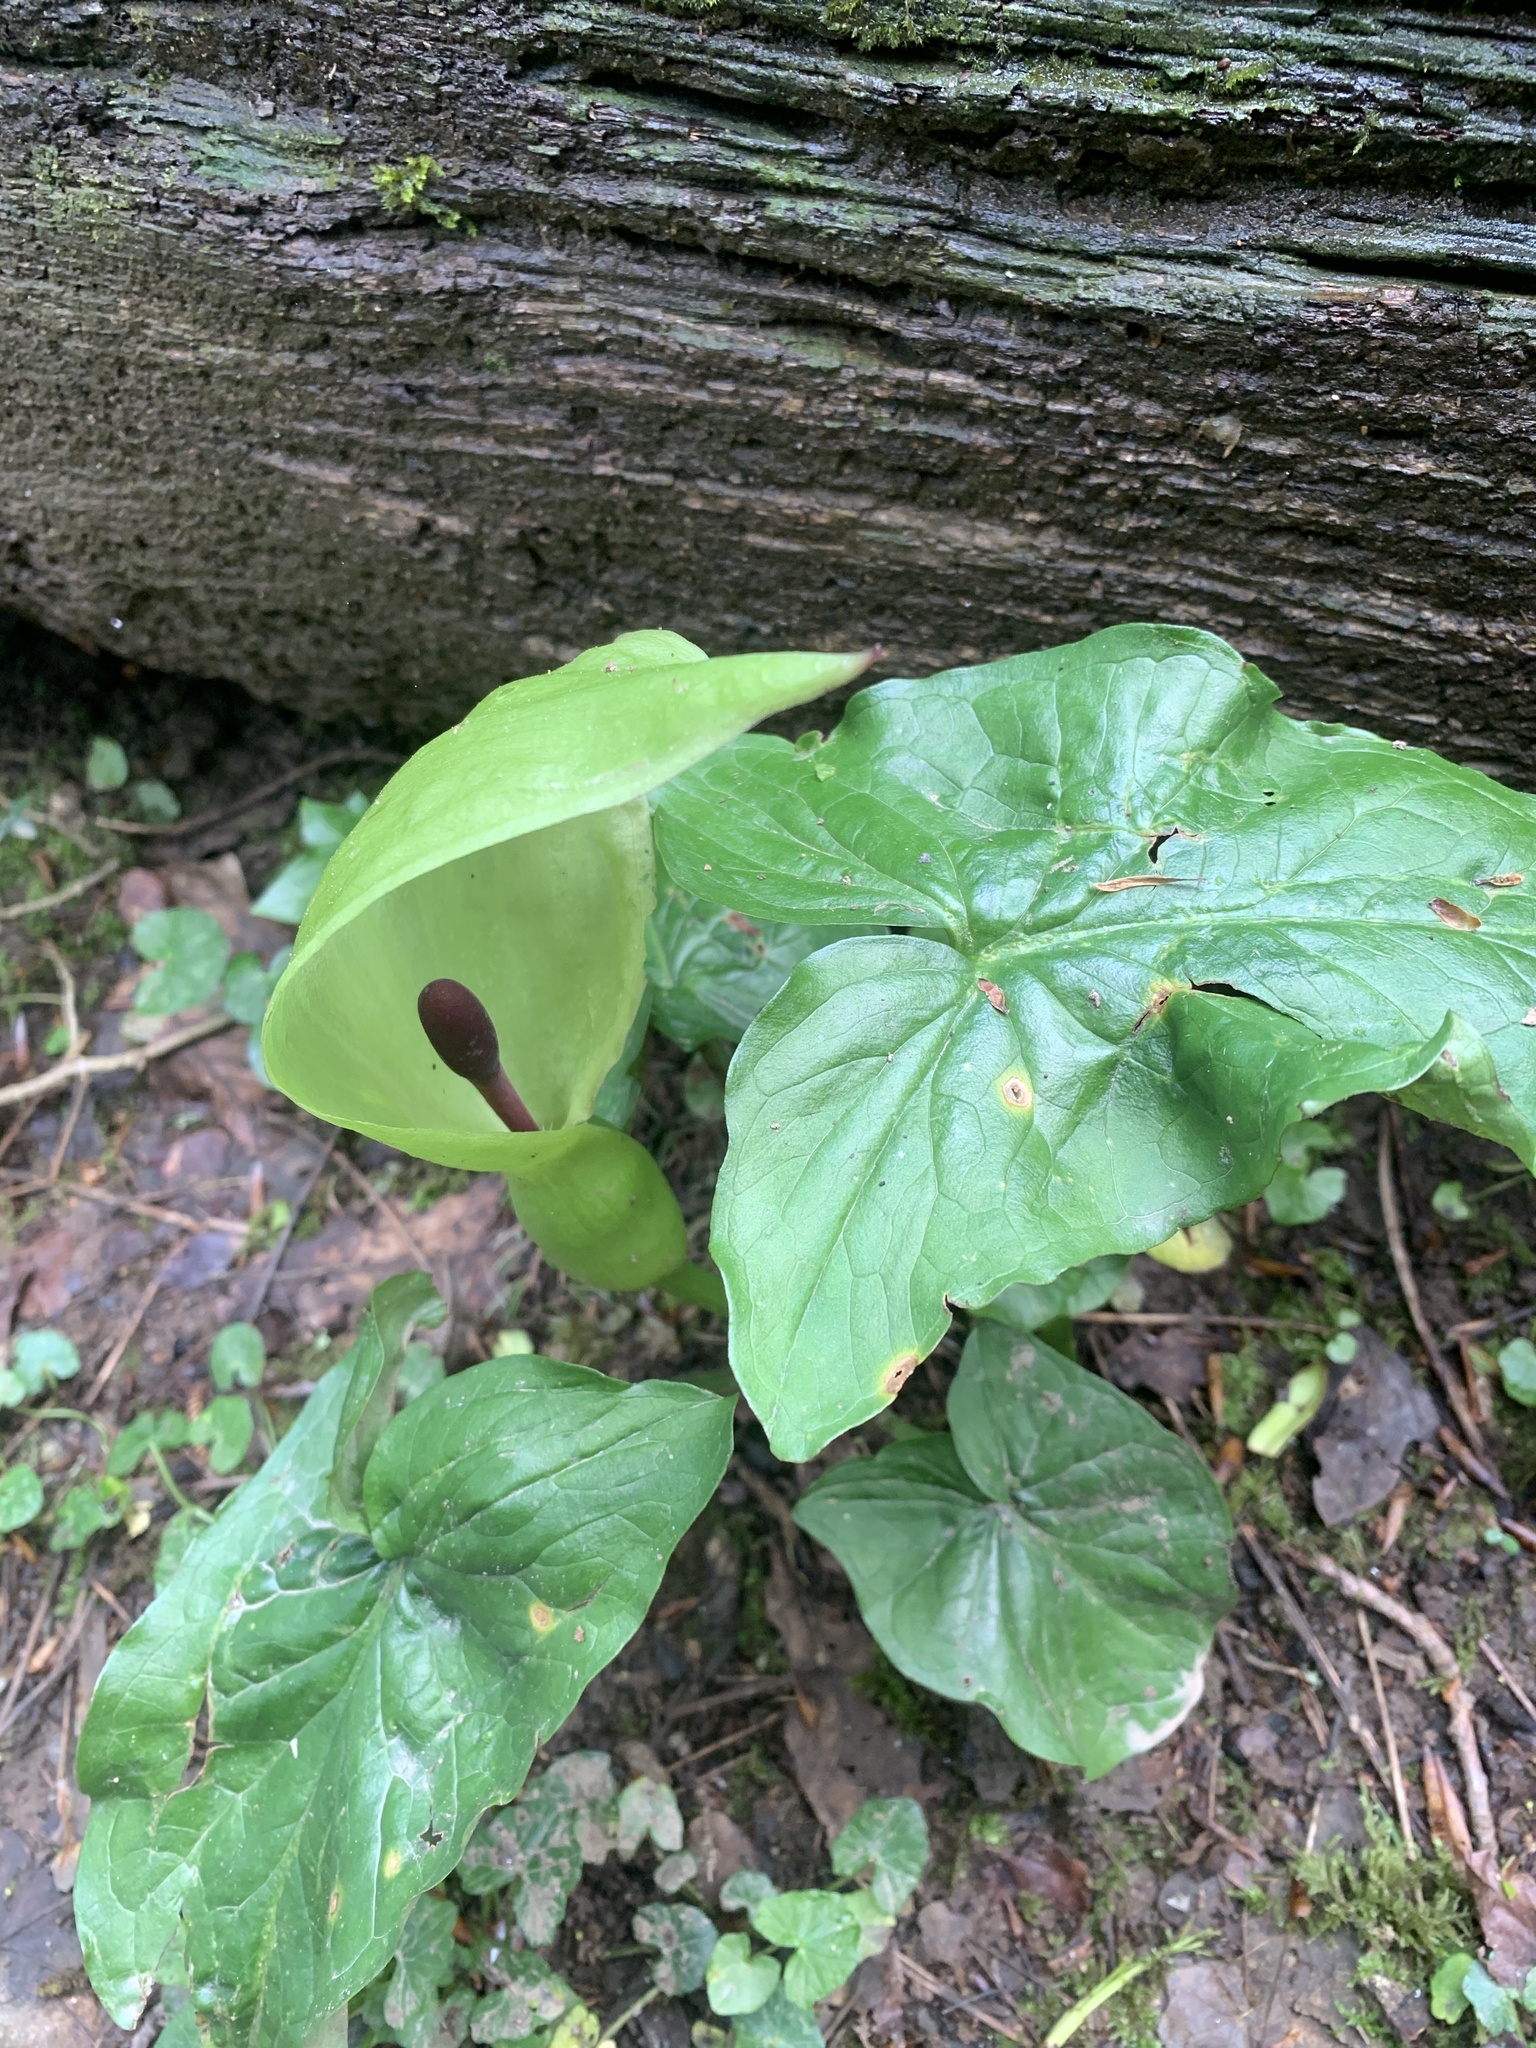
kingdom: Plantae
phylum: Tracheophyta
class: Liliopsida
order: Alismatales
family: Araceae
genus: Arum
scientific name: Arum maculatum
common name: Lords-and-ladies
